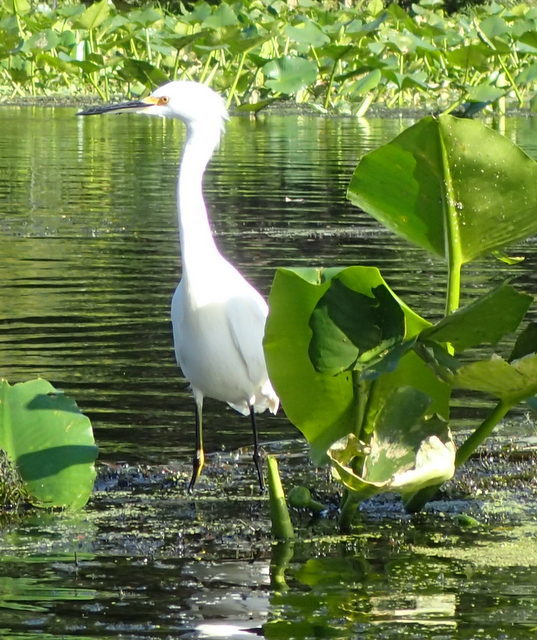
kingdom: Animalia
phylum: Chordata
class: Aves
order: Pelecaniformes
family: Ardeidae
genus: Egretta
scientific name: Egretta thula
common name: Snowy egret
